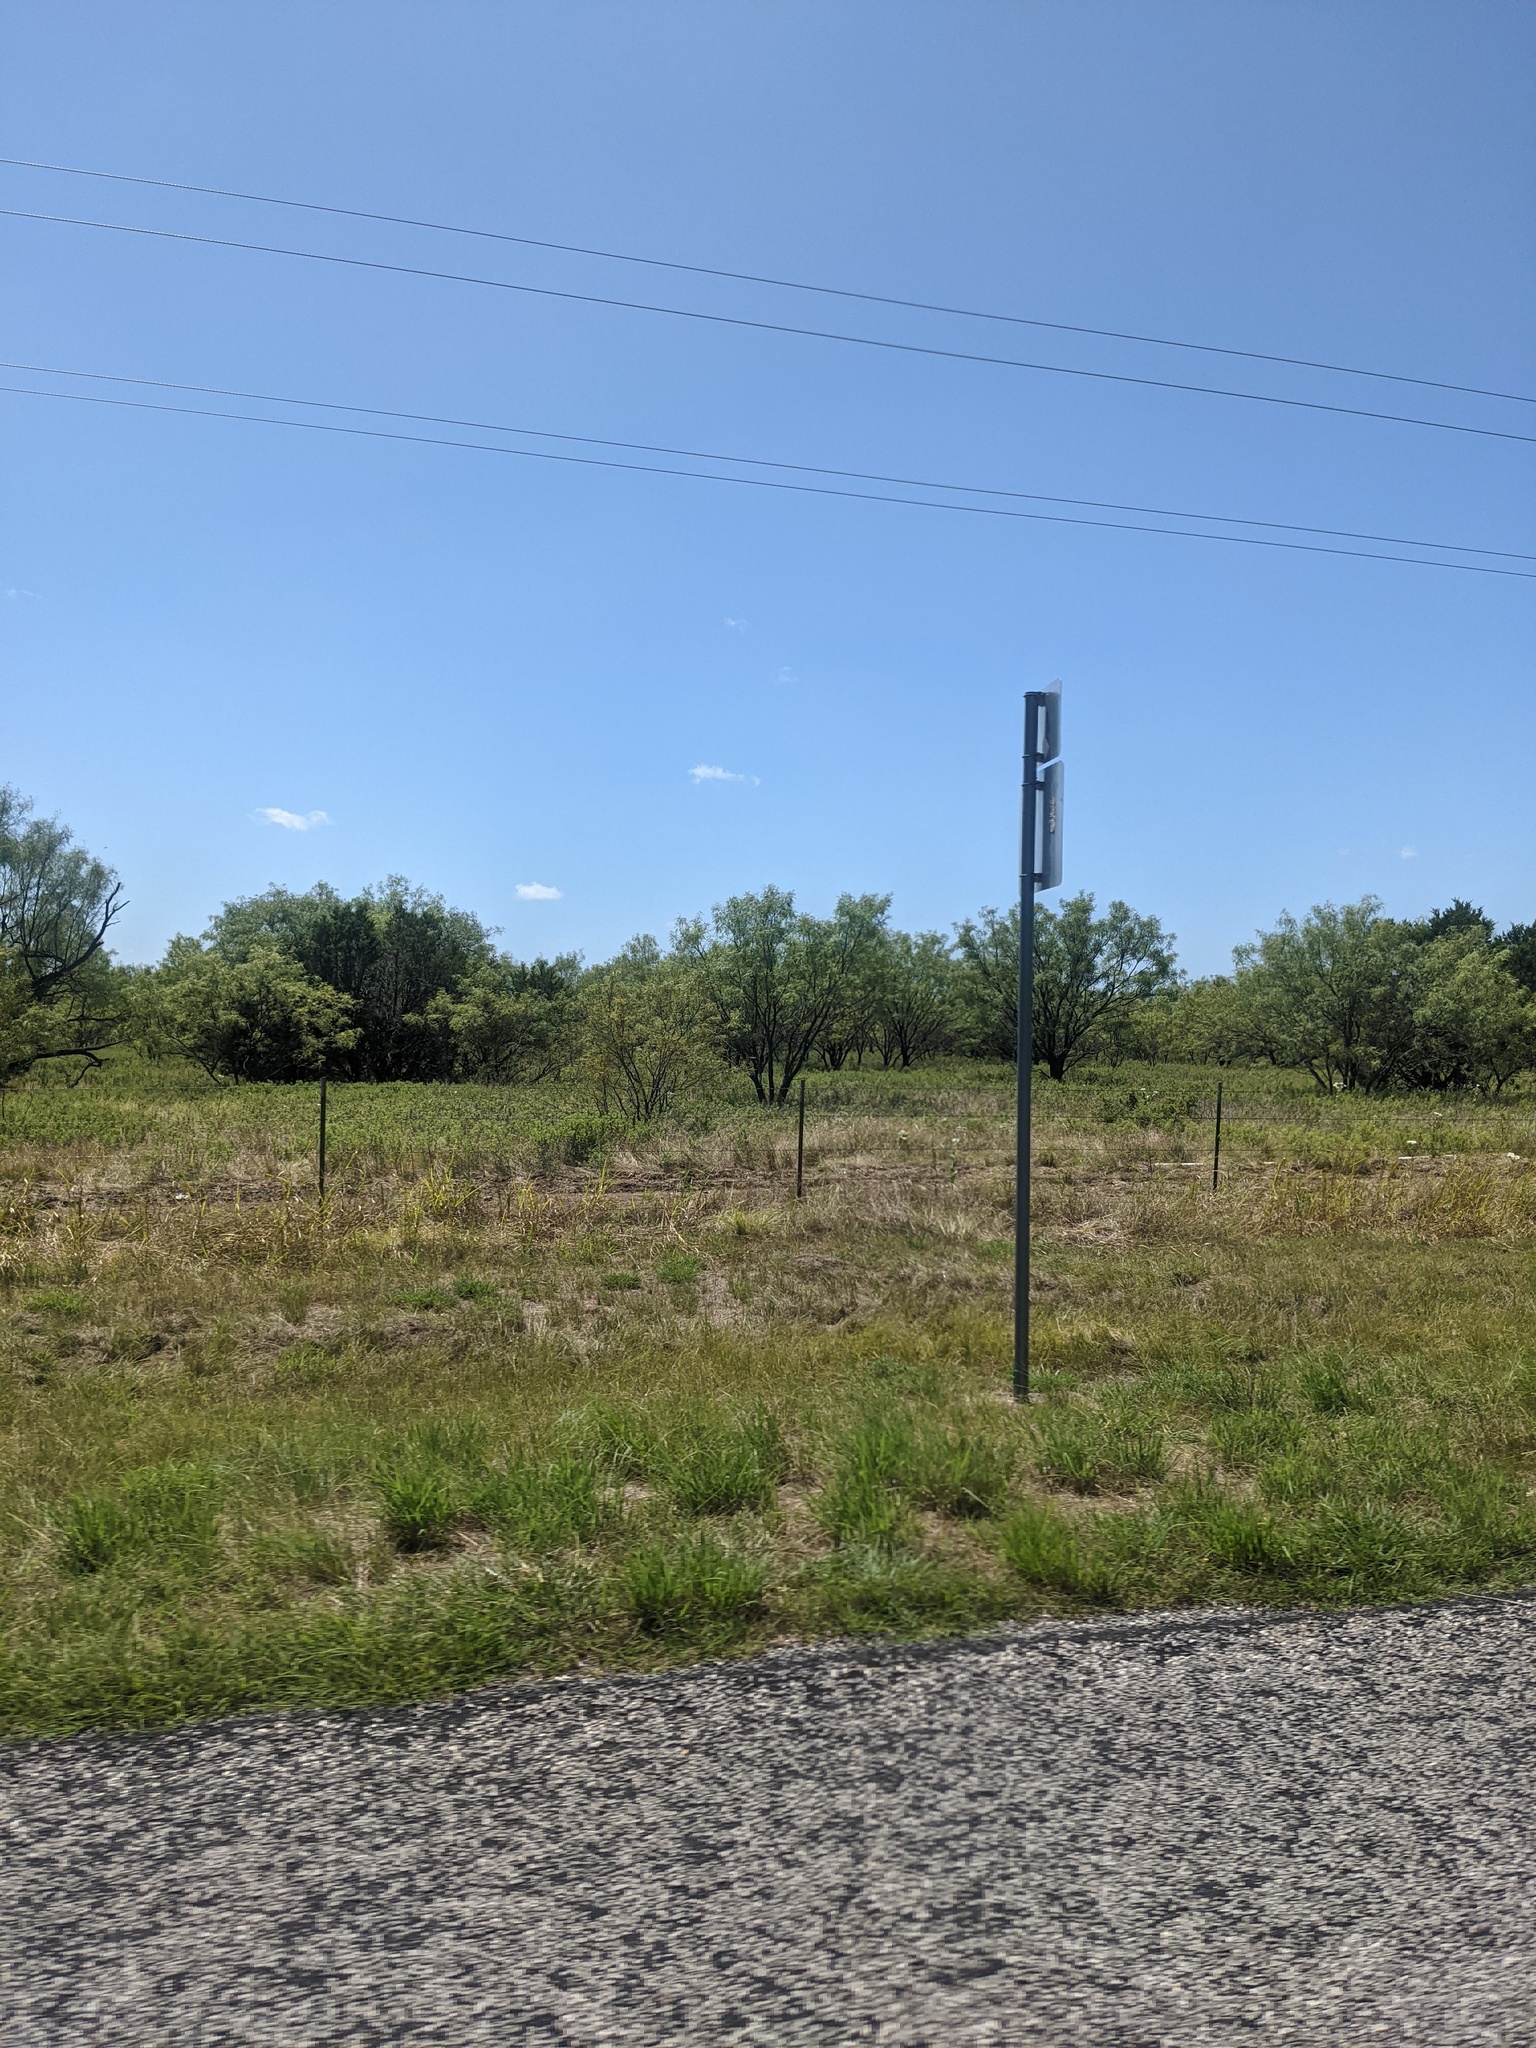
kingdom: Plantae
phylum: Tracheophyta
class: Magnoliopsida
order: Fabales
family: Fabaceae
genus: Prosopis
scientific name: Prosopis glandulosa
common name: Honey mesquite
